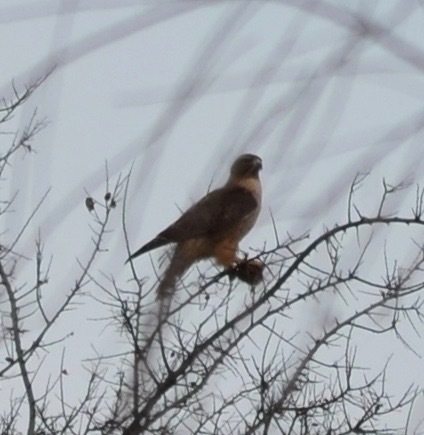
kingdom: Animalia
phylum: Chordata
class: Aves
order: Accipitriformes
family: Accipitridae
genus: Buteo
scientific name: Buteo jamaicensis
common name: Red-tailed hawk
